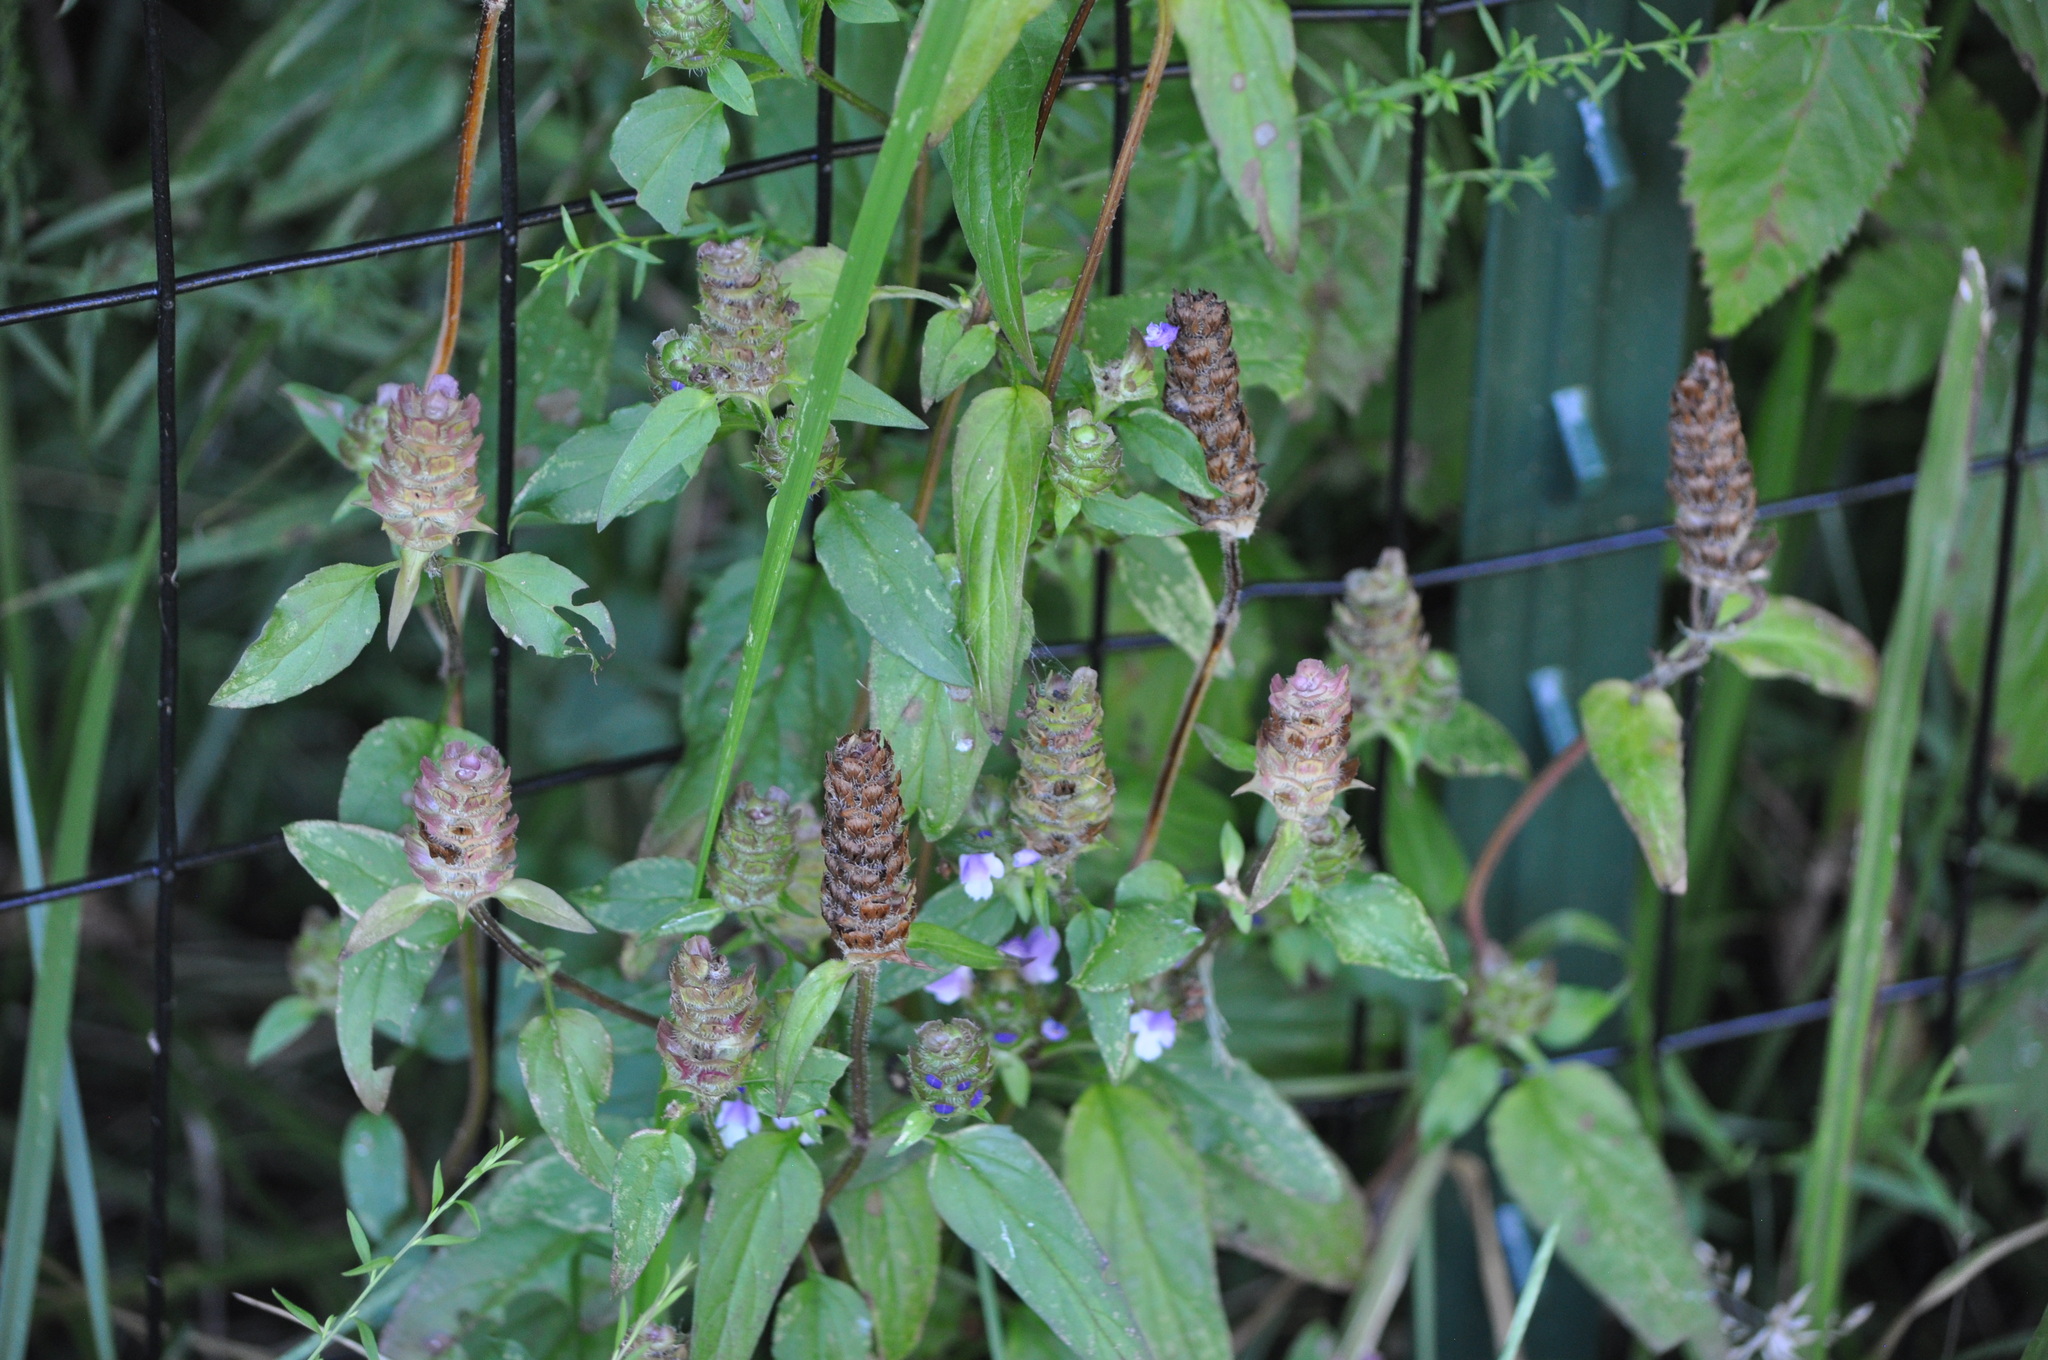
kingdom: Plantae
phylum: Tracheophyta
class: Magnoliopsida
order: Lamiales
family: Lamiaceae
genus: Prunella
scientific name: Prunella vulgaris
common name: Heal-all
